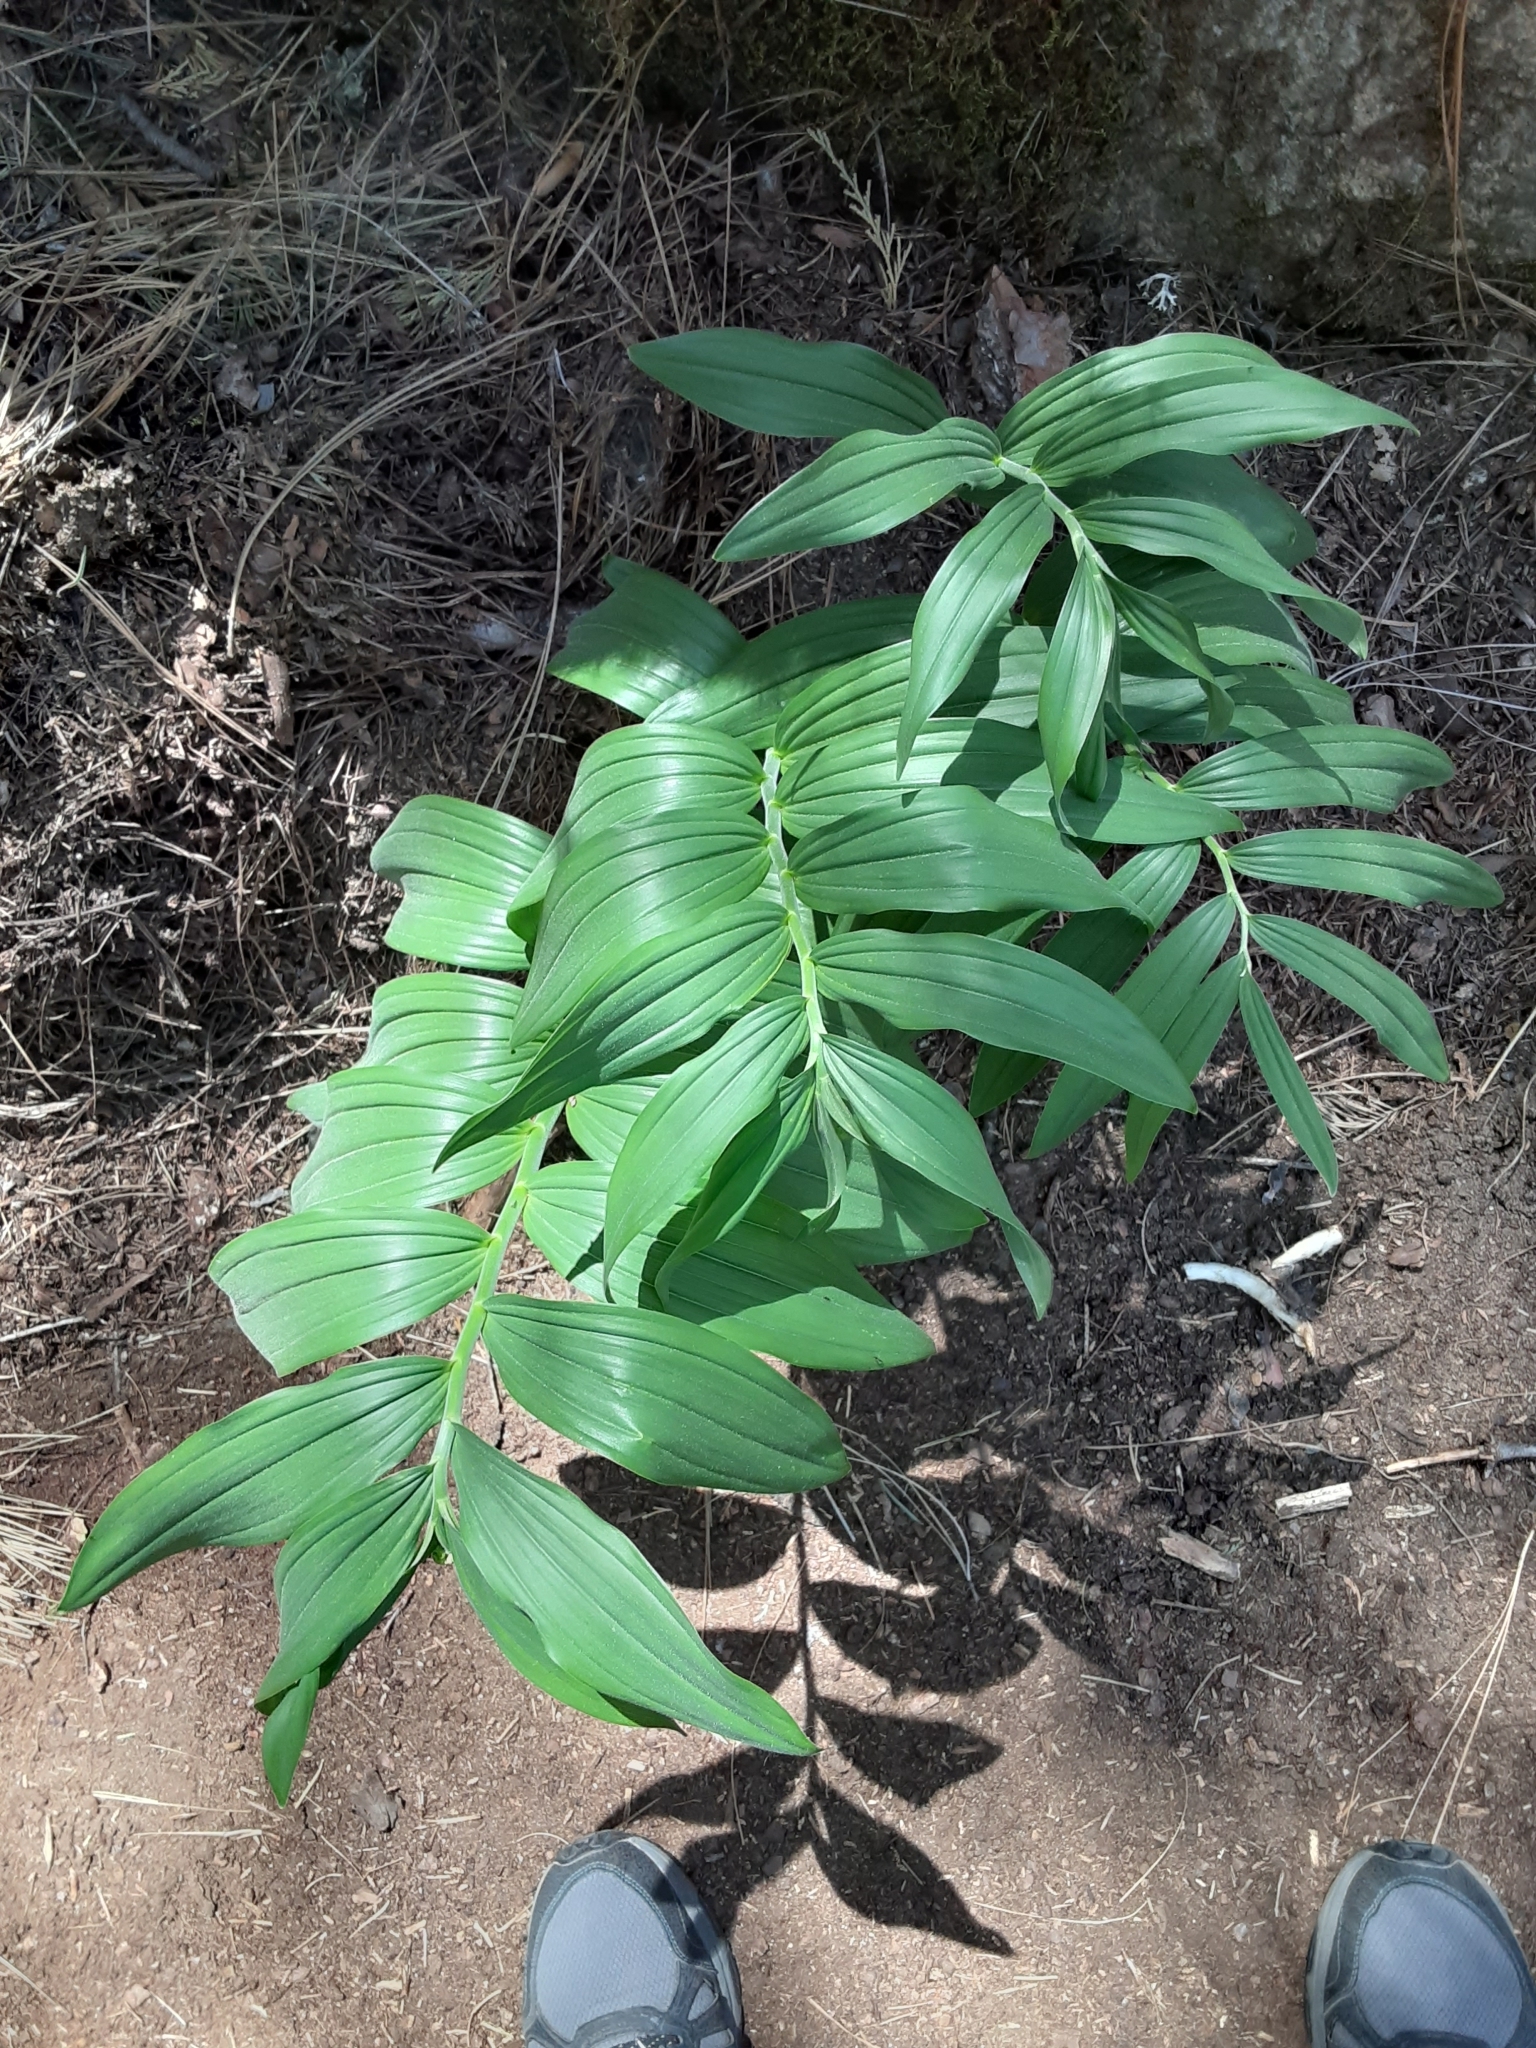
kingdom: Plantae
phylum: Tracheophyta
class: Liliopsida
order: Asparagales
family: Asparagaceae
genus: Maianthemum
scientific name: Maianthemum racemosum
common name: False spikenard
